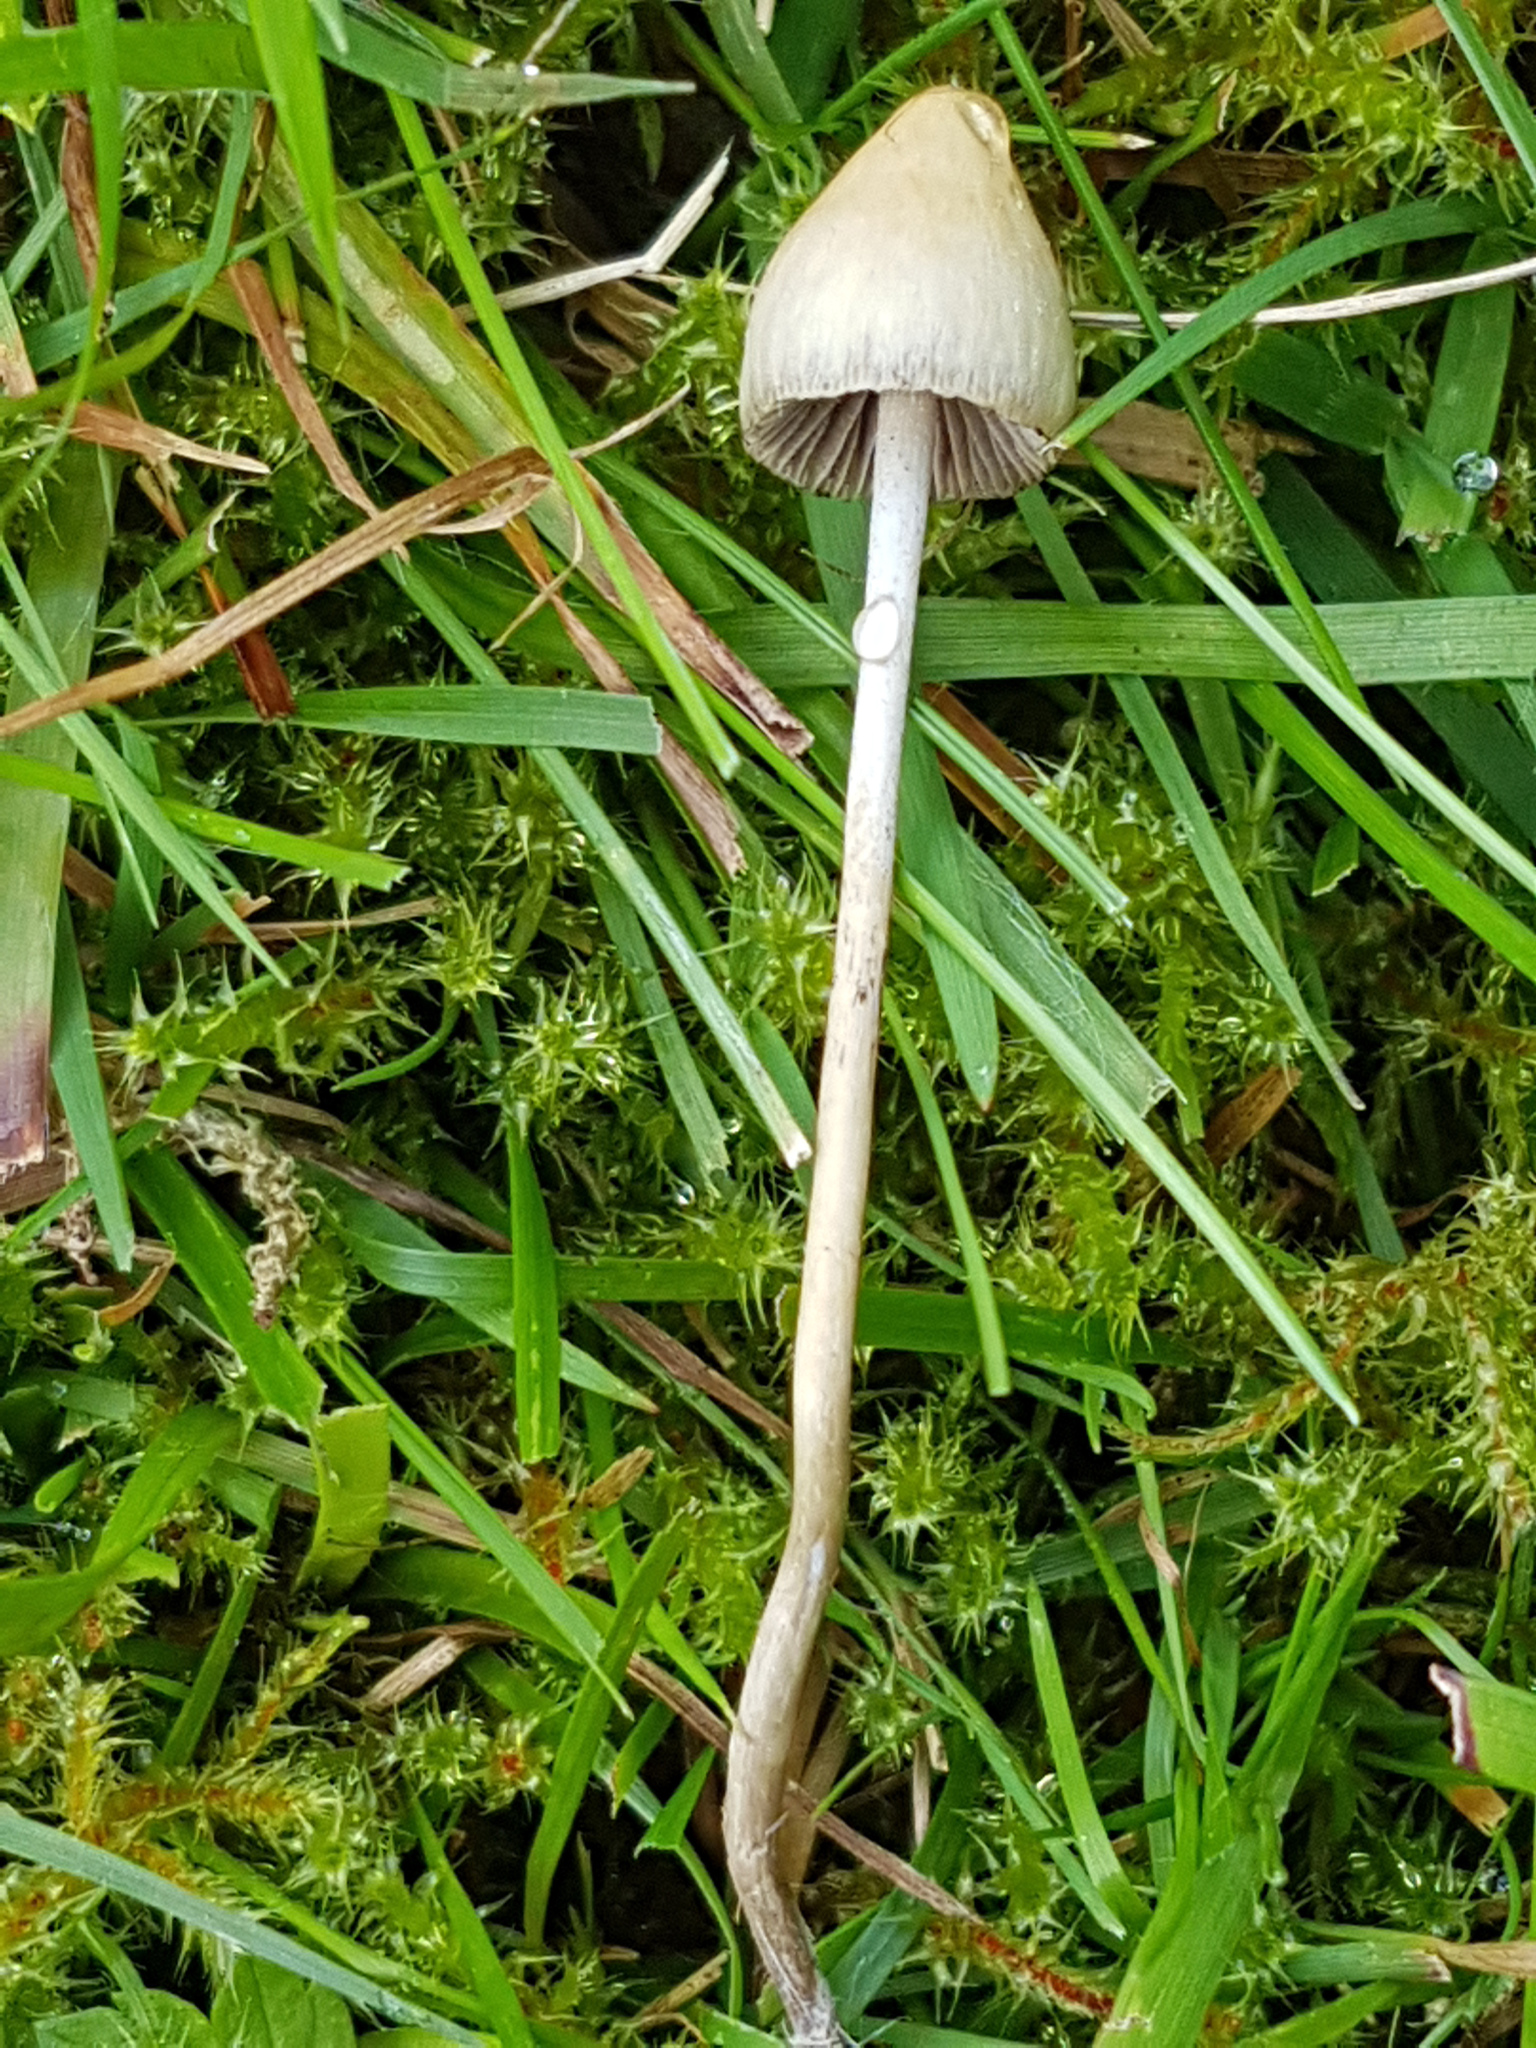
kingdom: Fungi
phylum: Basidiomycota
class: Agaricomycetes
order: Agaricales
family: Hymenogastraceae
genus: Psilocybe
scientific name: Psilocybe semilanceata
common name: Liberty cap
